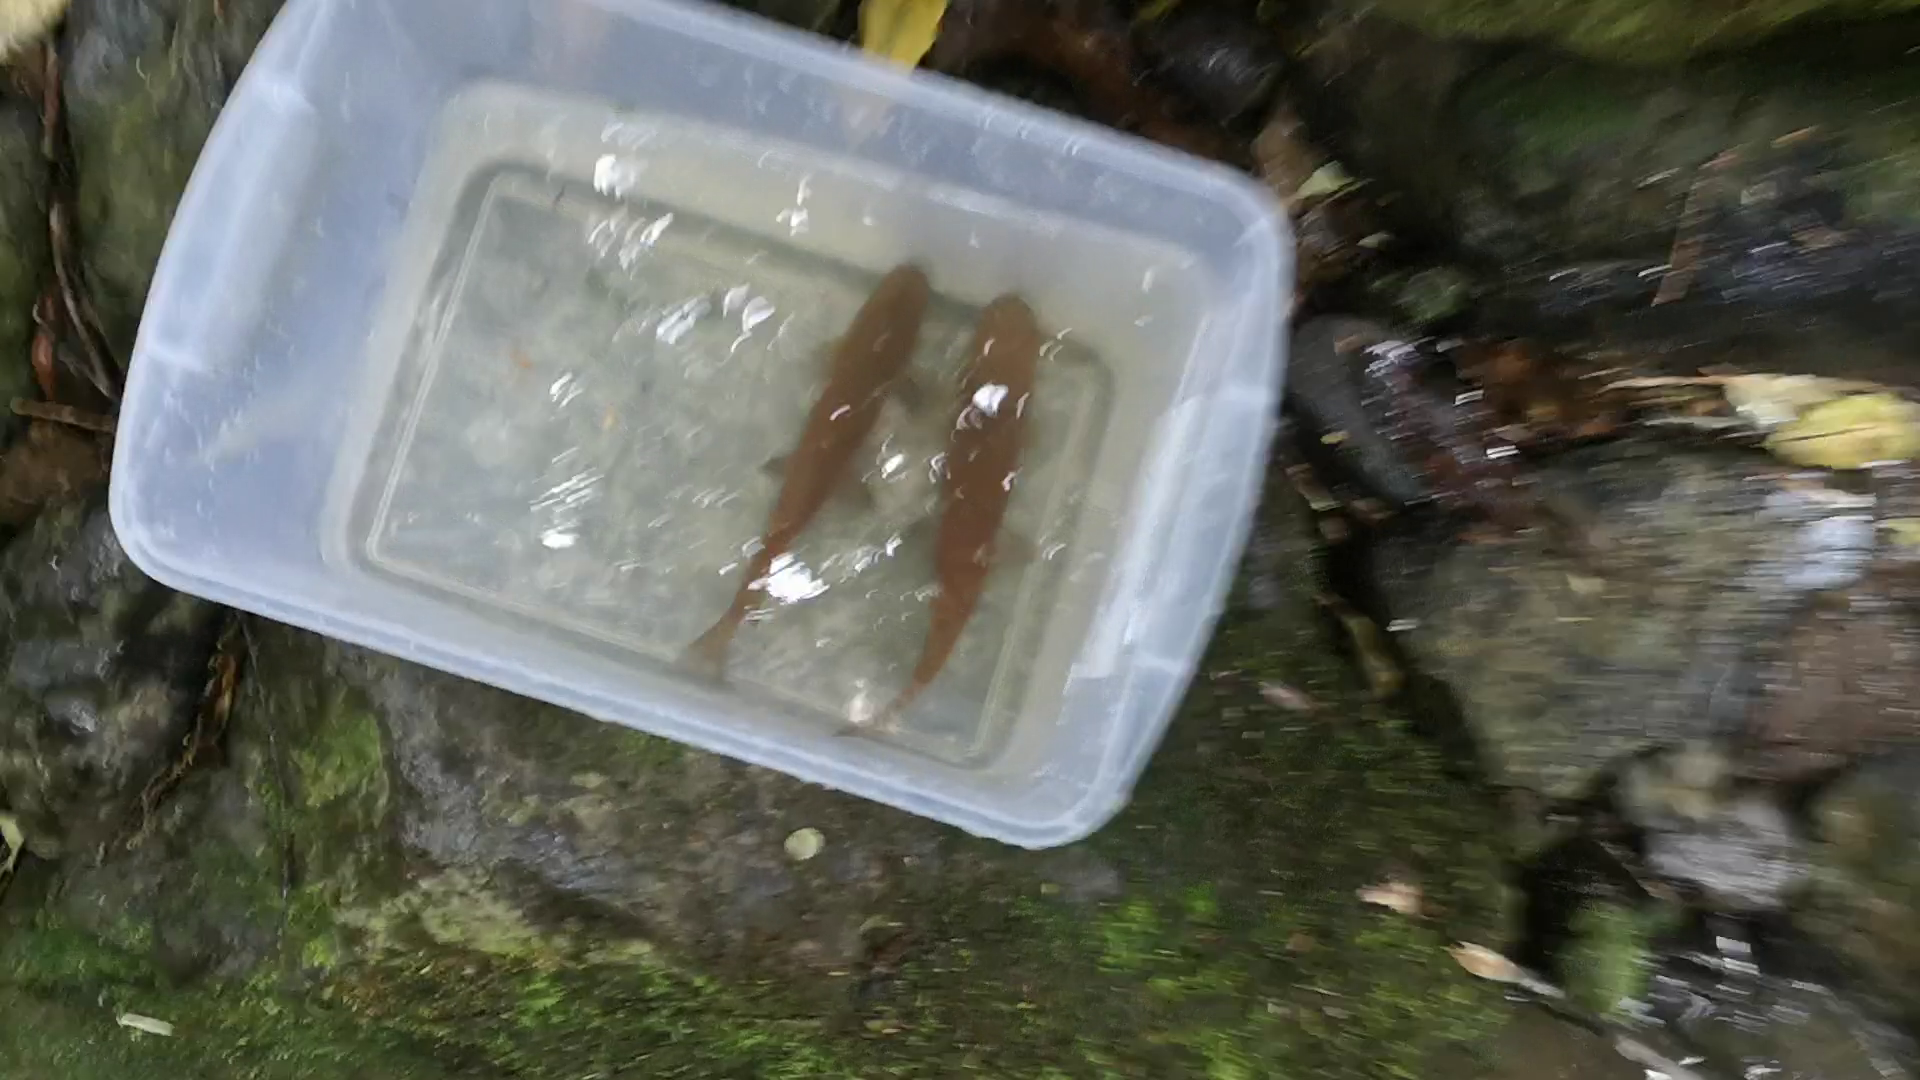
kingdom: Animalia
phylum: Chordata
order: Osmeriformes
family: Galaxiidae
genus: Galaxias
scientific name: Galaxias fasciatus
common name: Banded kokopu
